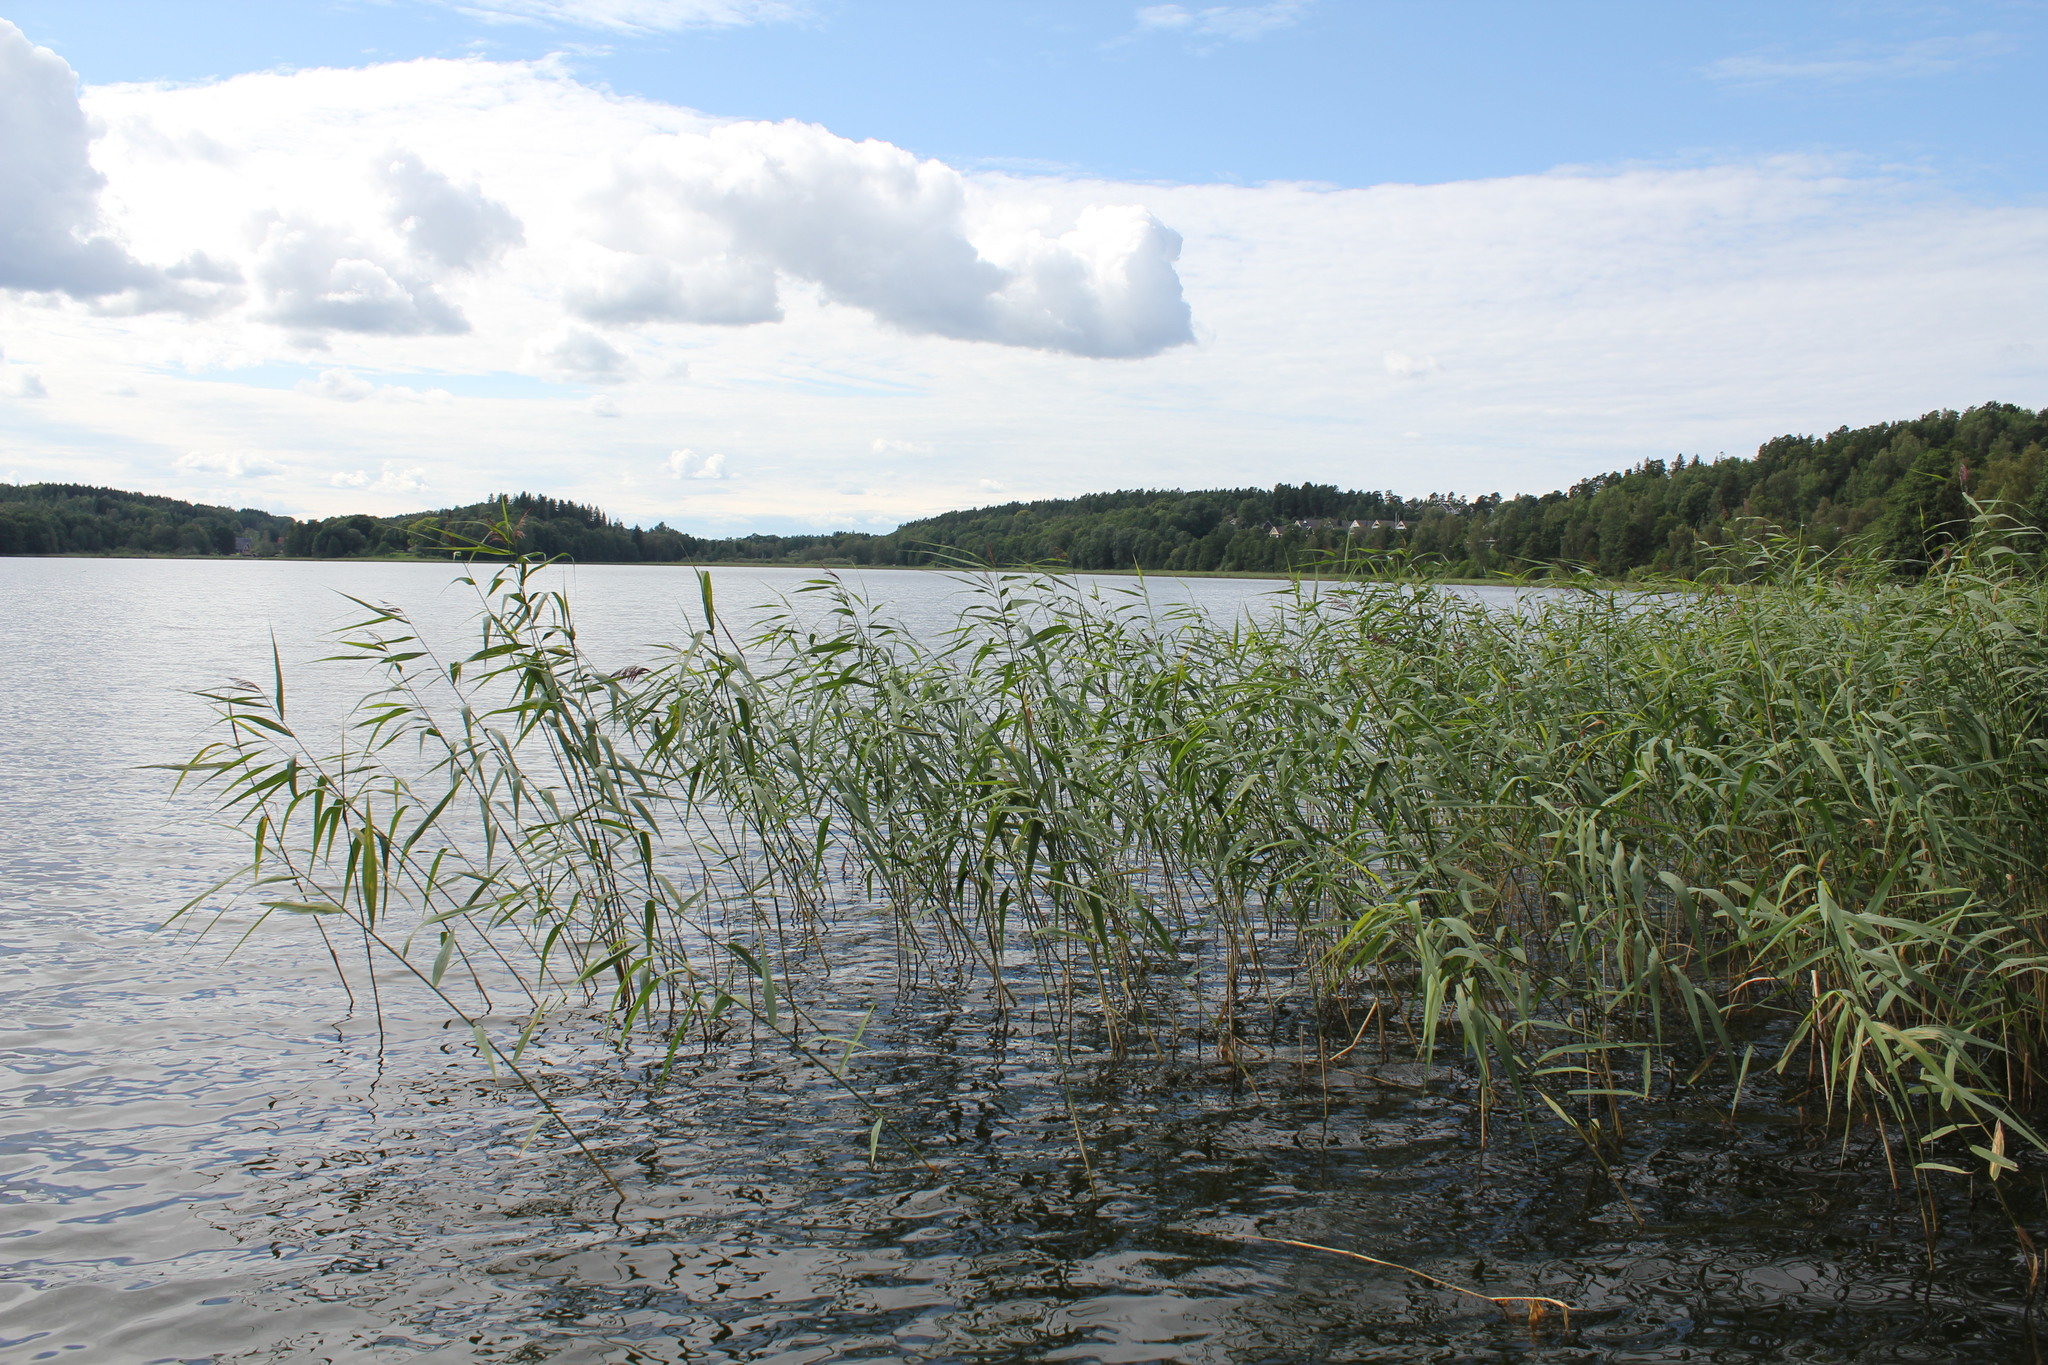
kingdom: Plantae
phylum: Tracheophyta
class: Liliopsida
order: Poales
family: Poaceae
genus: Phragmites
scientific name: Phragmites australis
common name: Common reed
